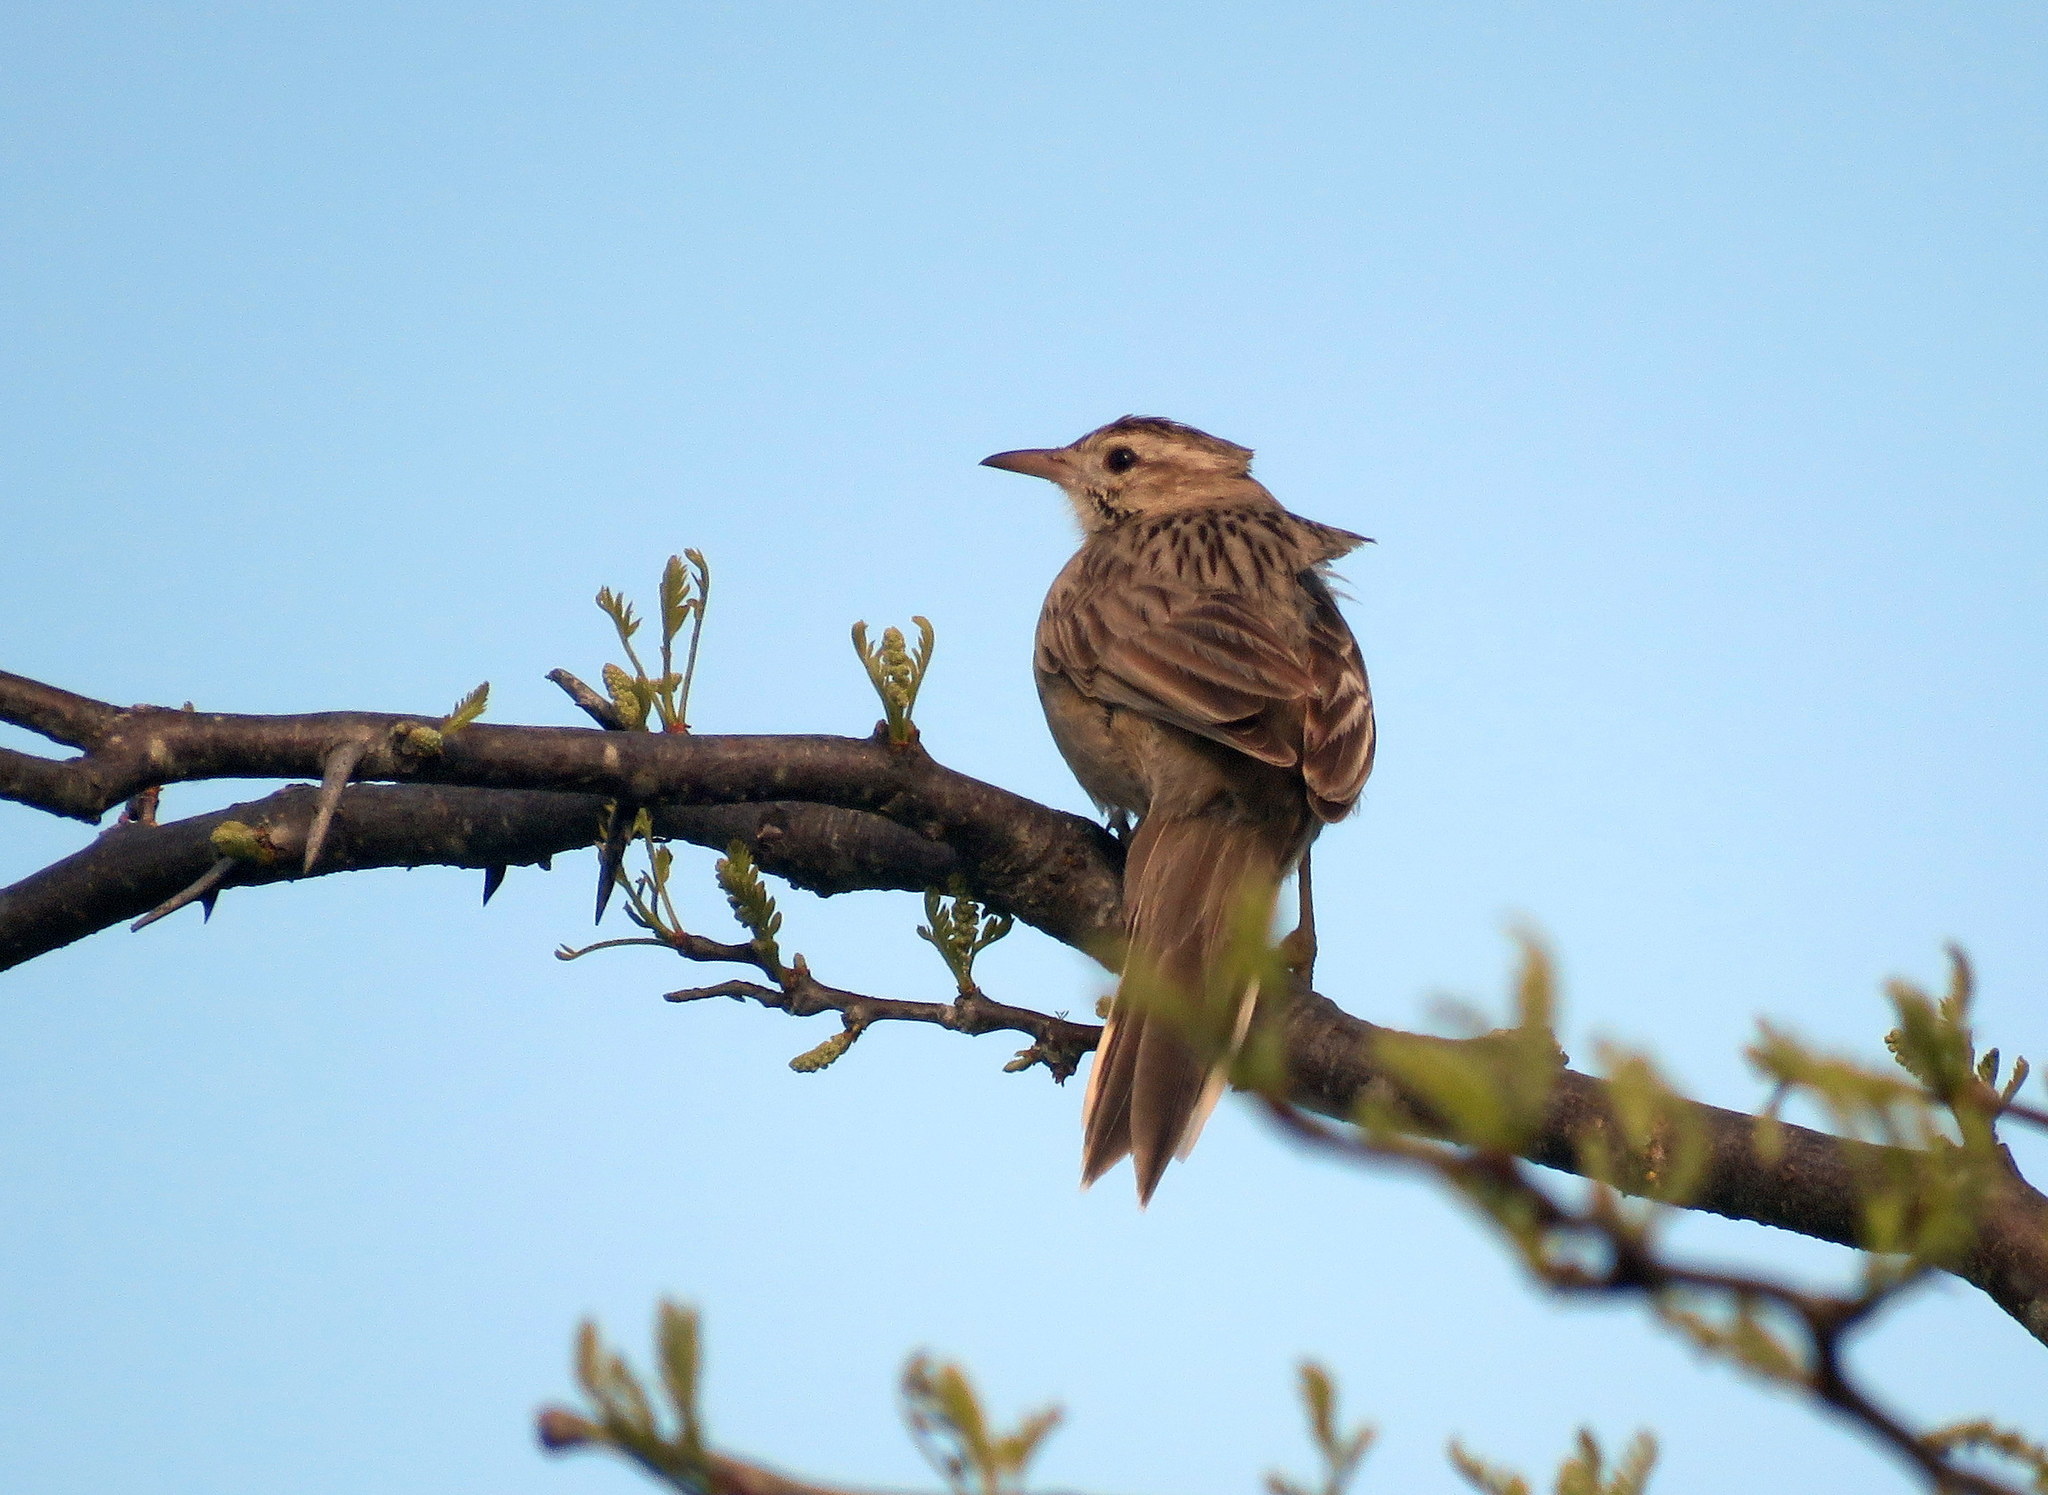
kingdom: Animalia
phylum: Chordata
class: Aves
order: Passeriformes
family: Furnariidae
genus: Anumbius
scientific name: Anumbius annumbi
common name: Firewood-gatherer
